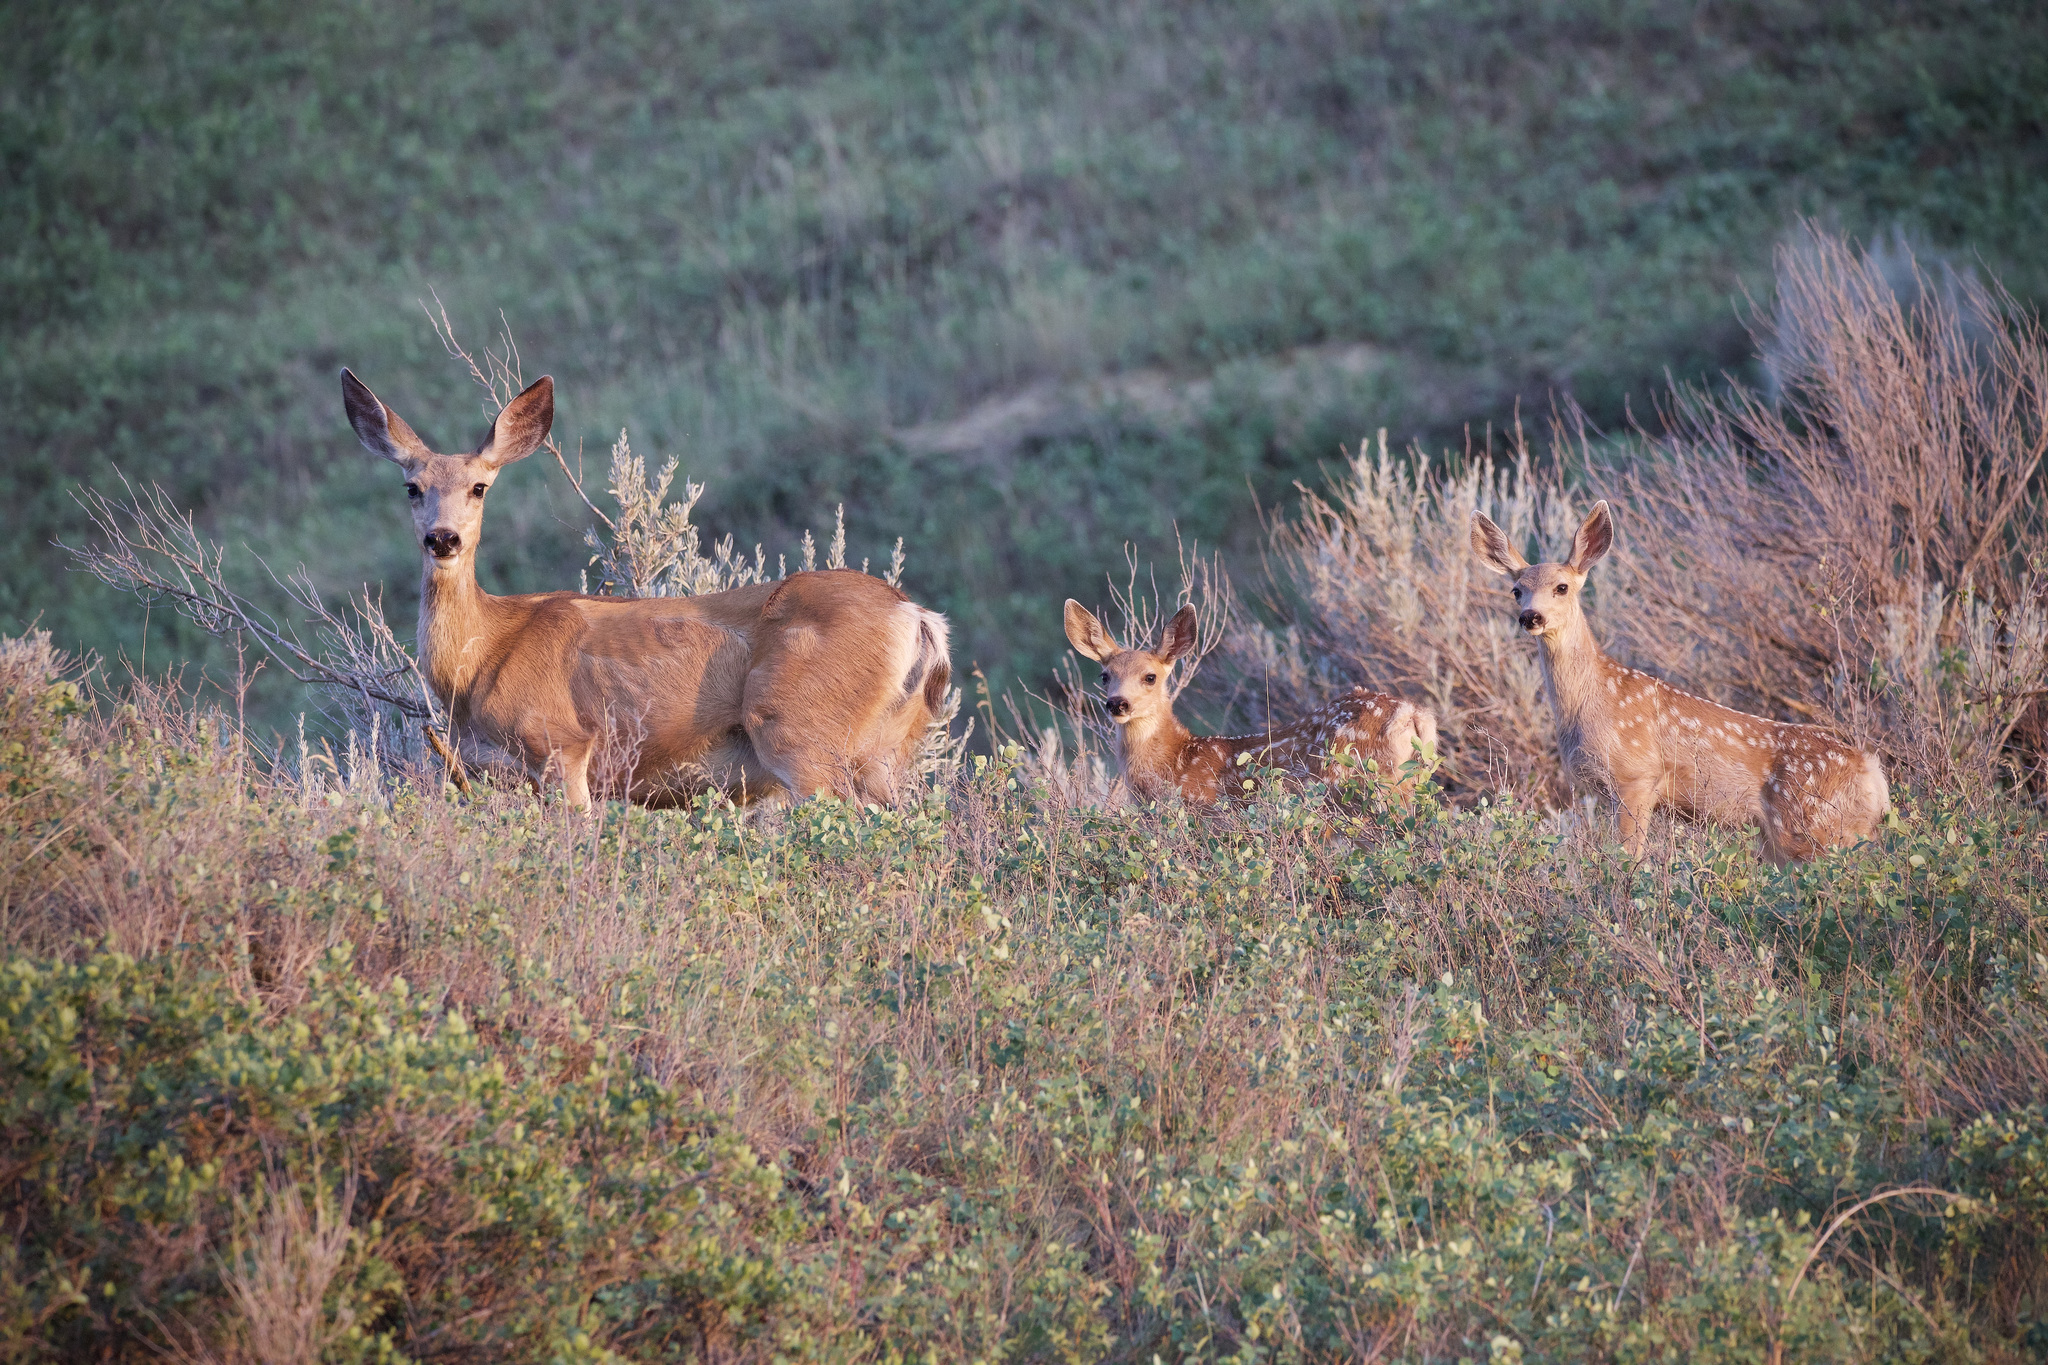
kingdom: Animalia
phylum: Chordata
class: Mammalia
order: Artiodactyla
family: Cervidae
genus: Odocoileus
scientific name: Odocoileus hemionus
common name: Mule deer
